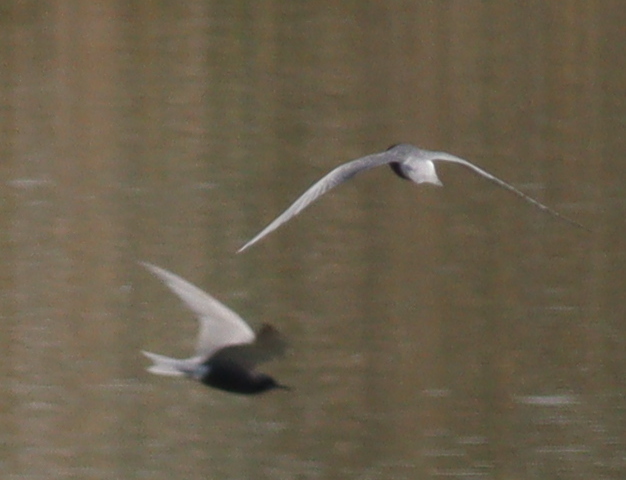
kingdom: Animalia
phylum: Chordata
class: Aves
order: Charadriiformes
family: Laridae
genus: Chlidonias
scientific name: Chlidonias niger
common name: Black tern
